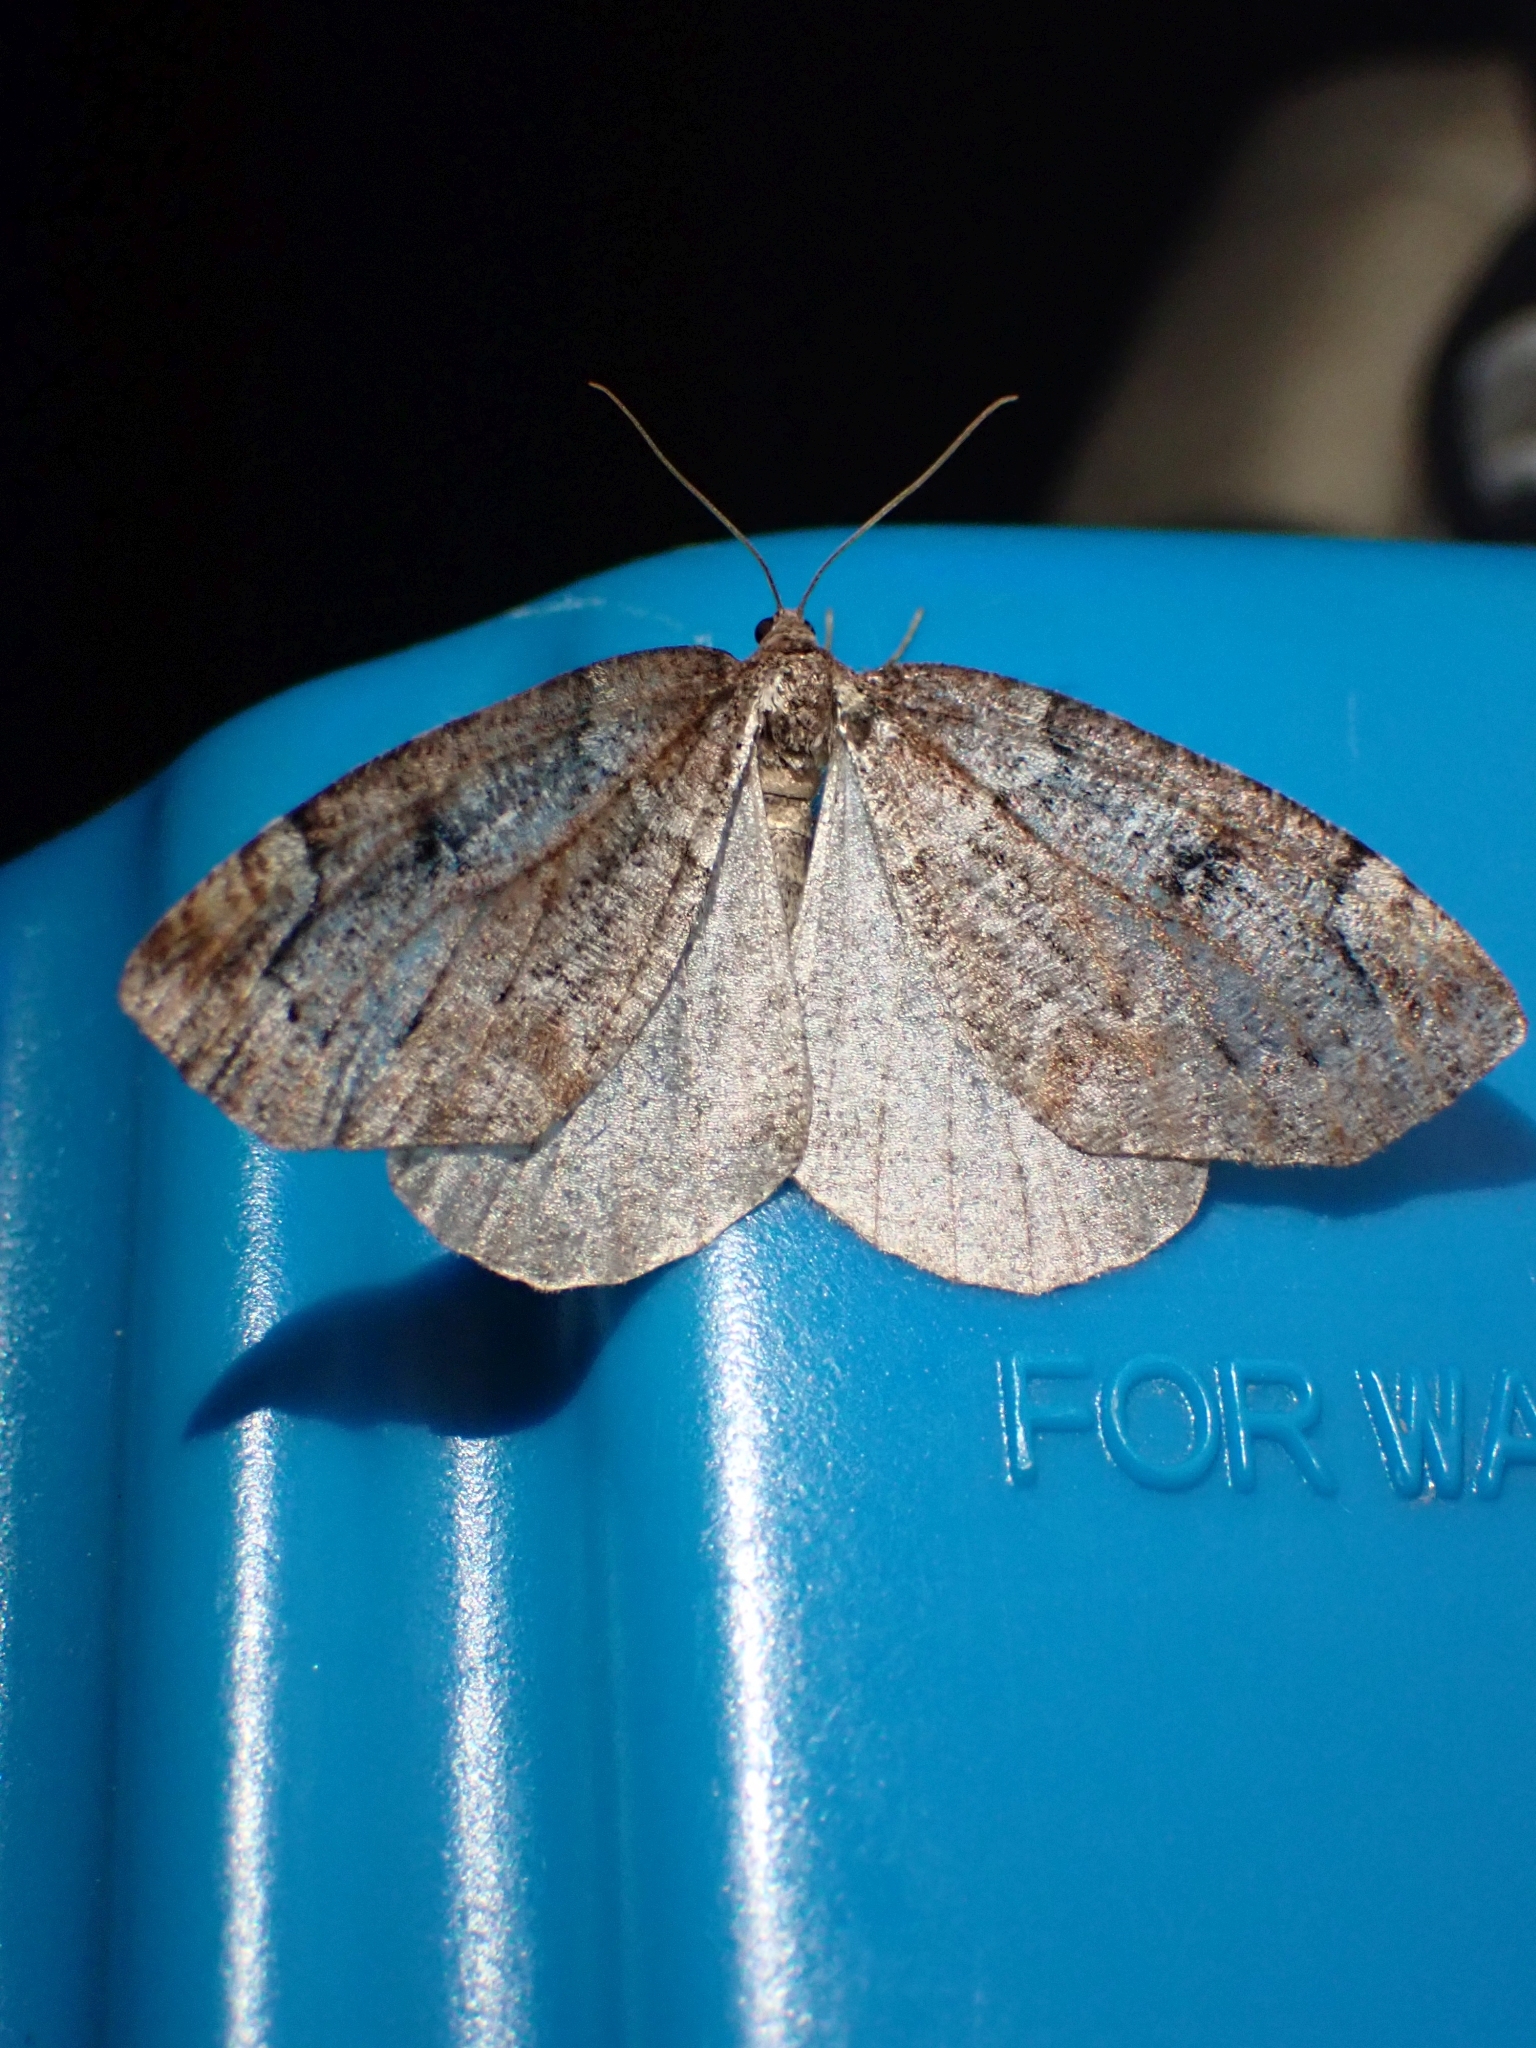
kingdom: Animalia
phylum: Arthropoda
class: Insecta
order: Lepidoptera
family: Geometridae
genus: Spodolepis
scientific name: Spodolepis danbyi
